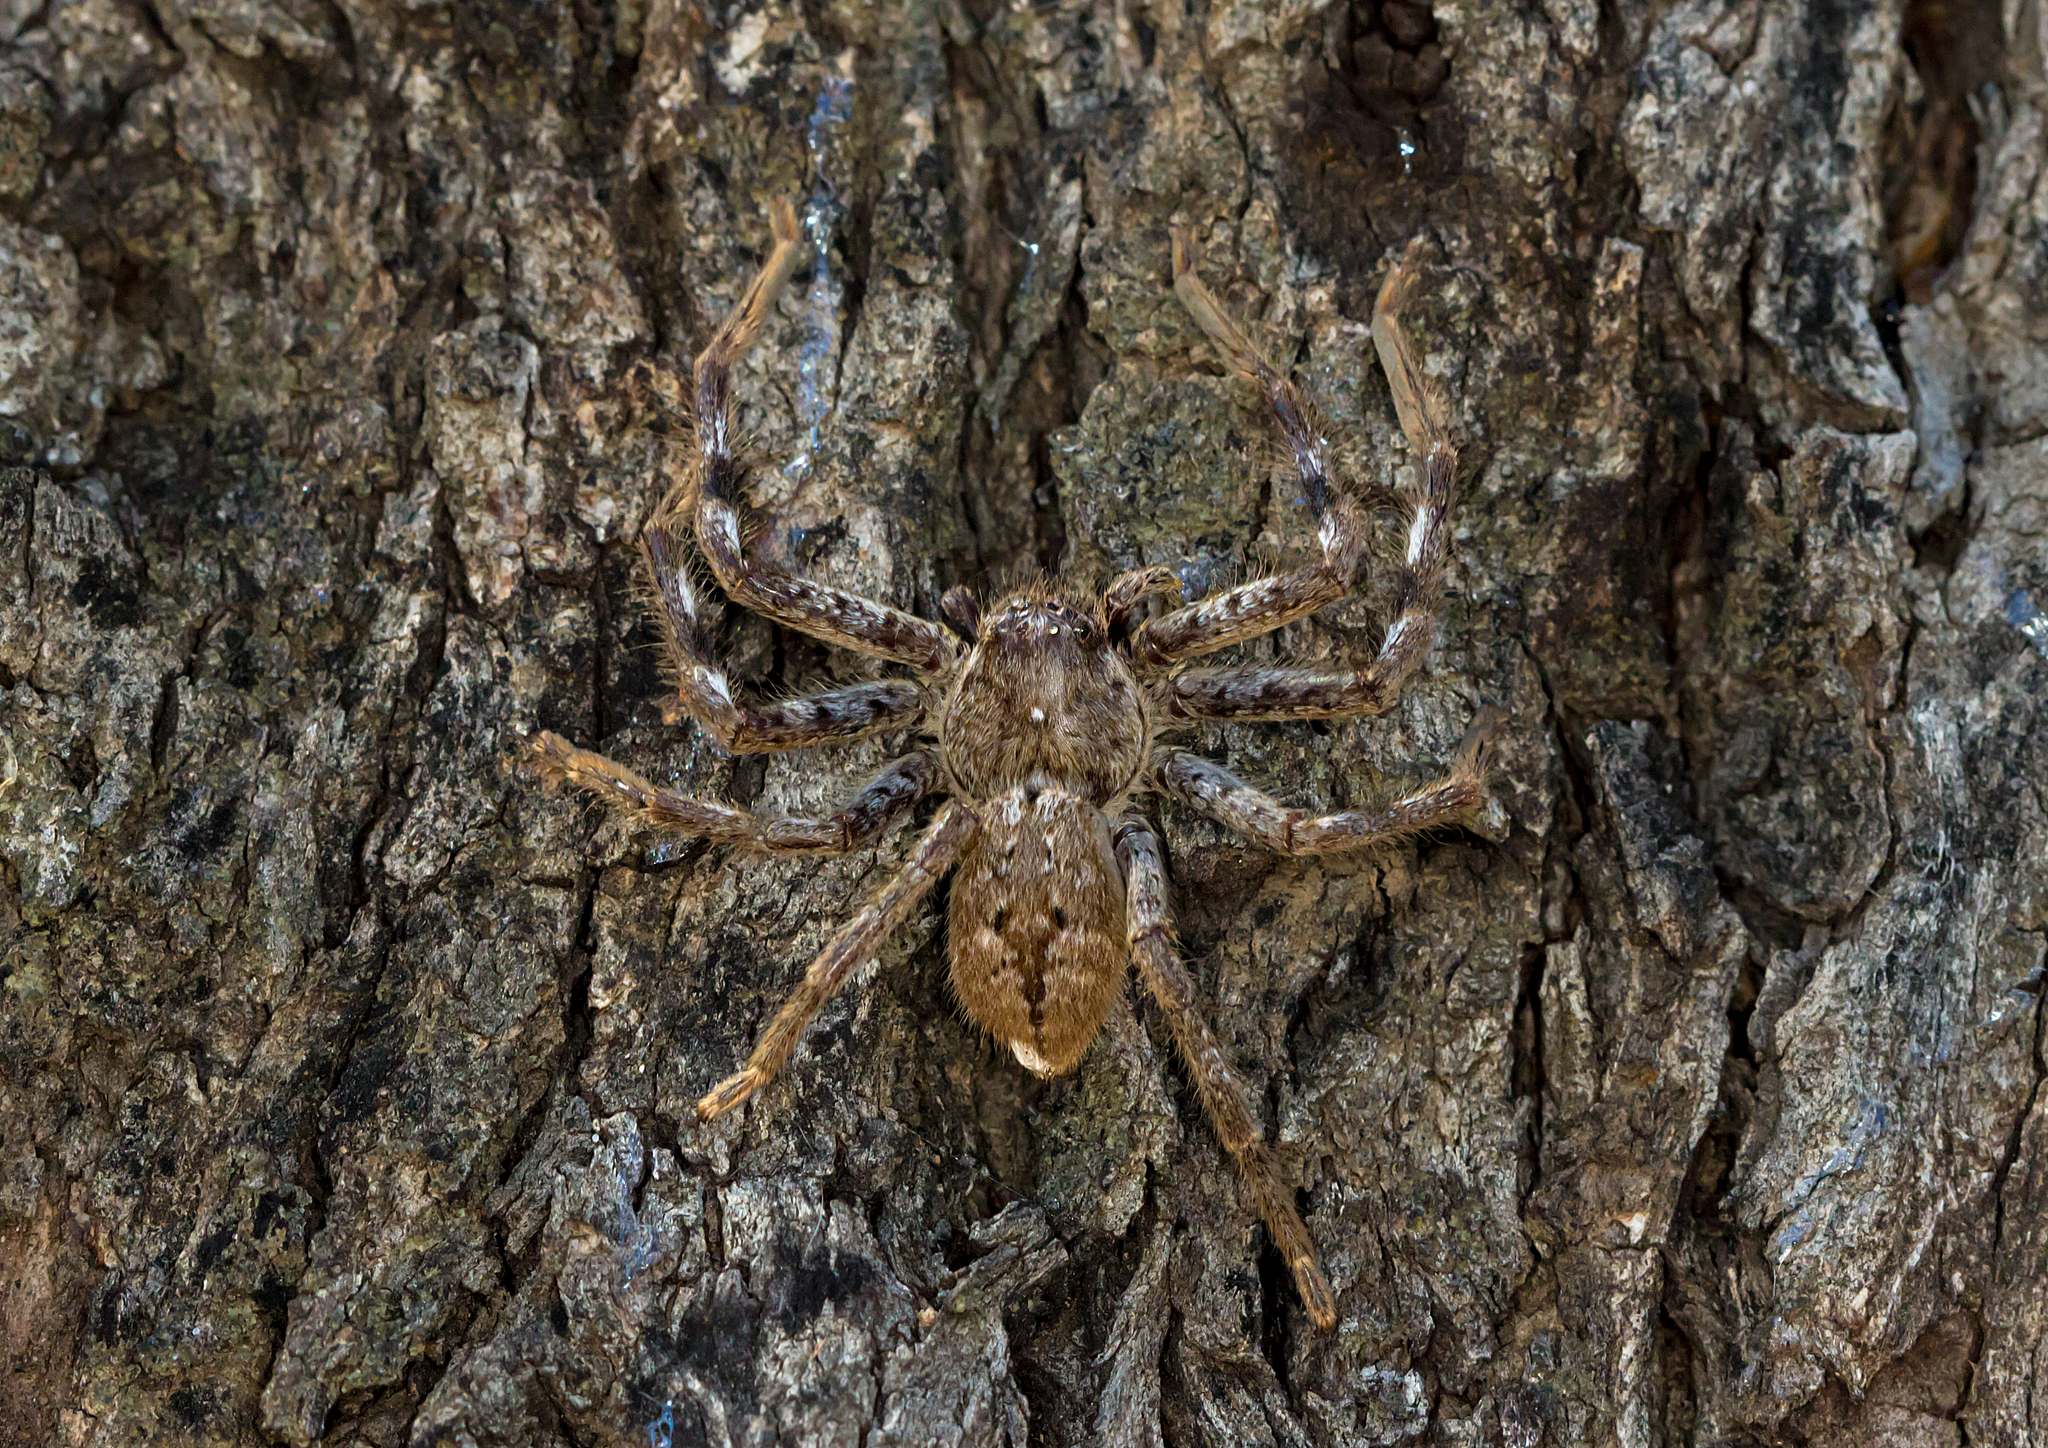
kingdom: Animalia
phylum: Arthropoda
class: Arachnida
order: Araneae
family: Sparassidae
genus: Isopedella
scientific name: Isopedella victorialis
